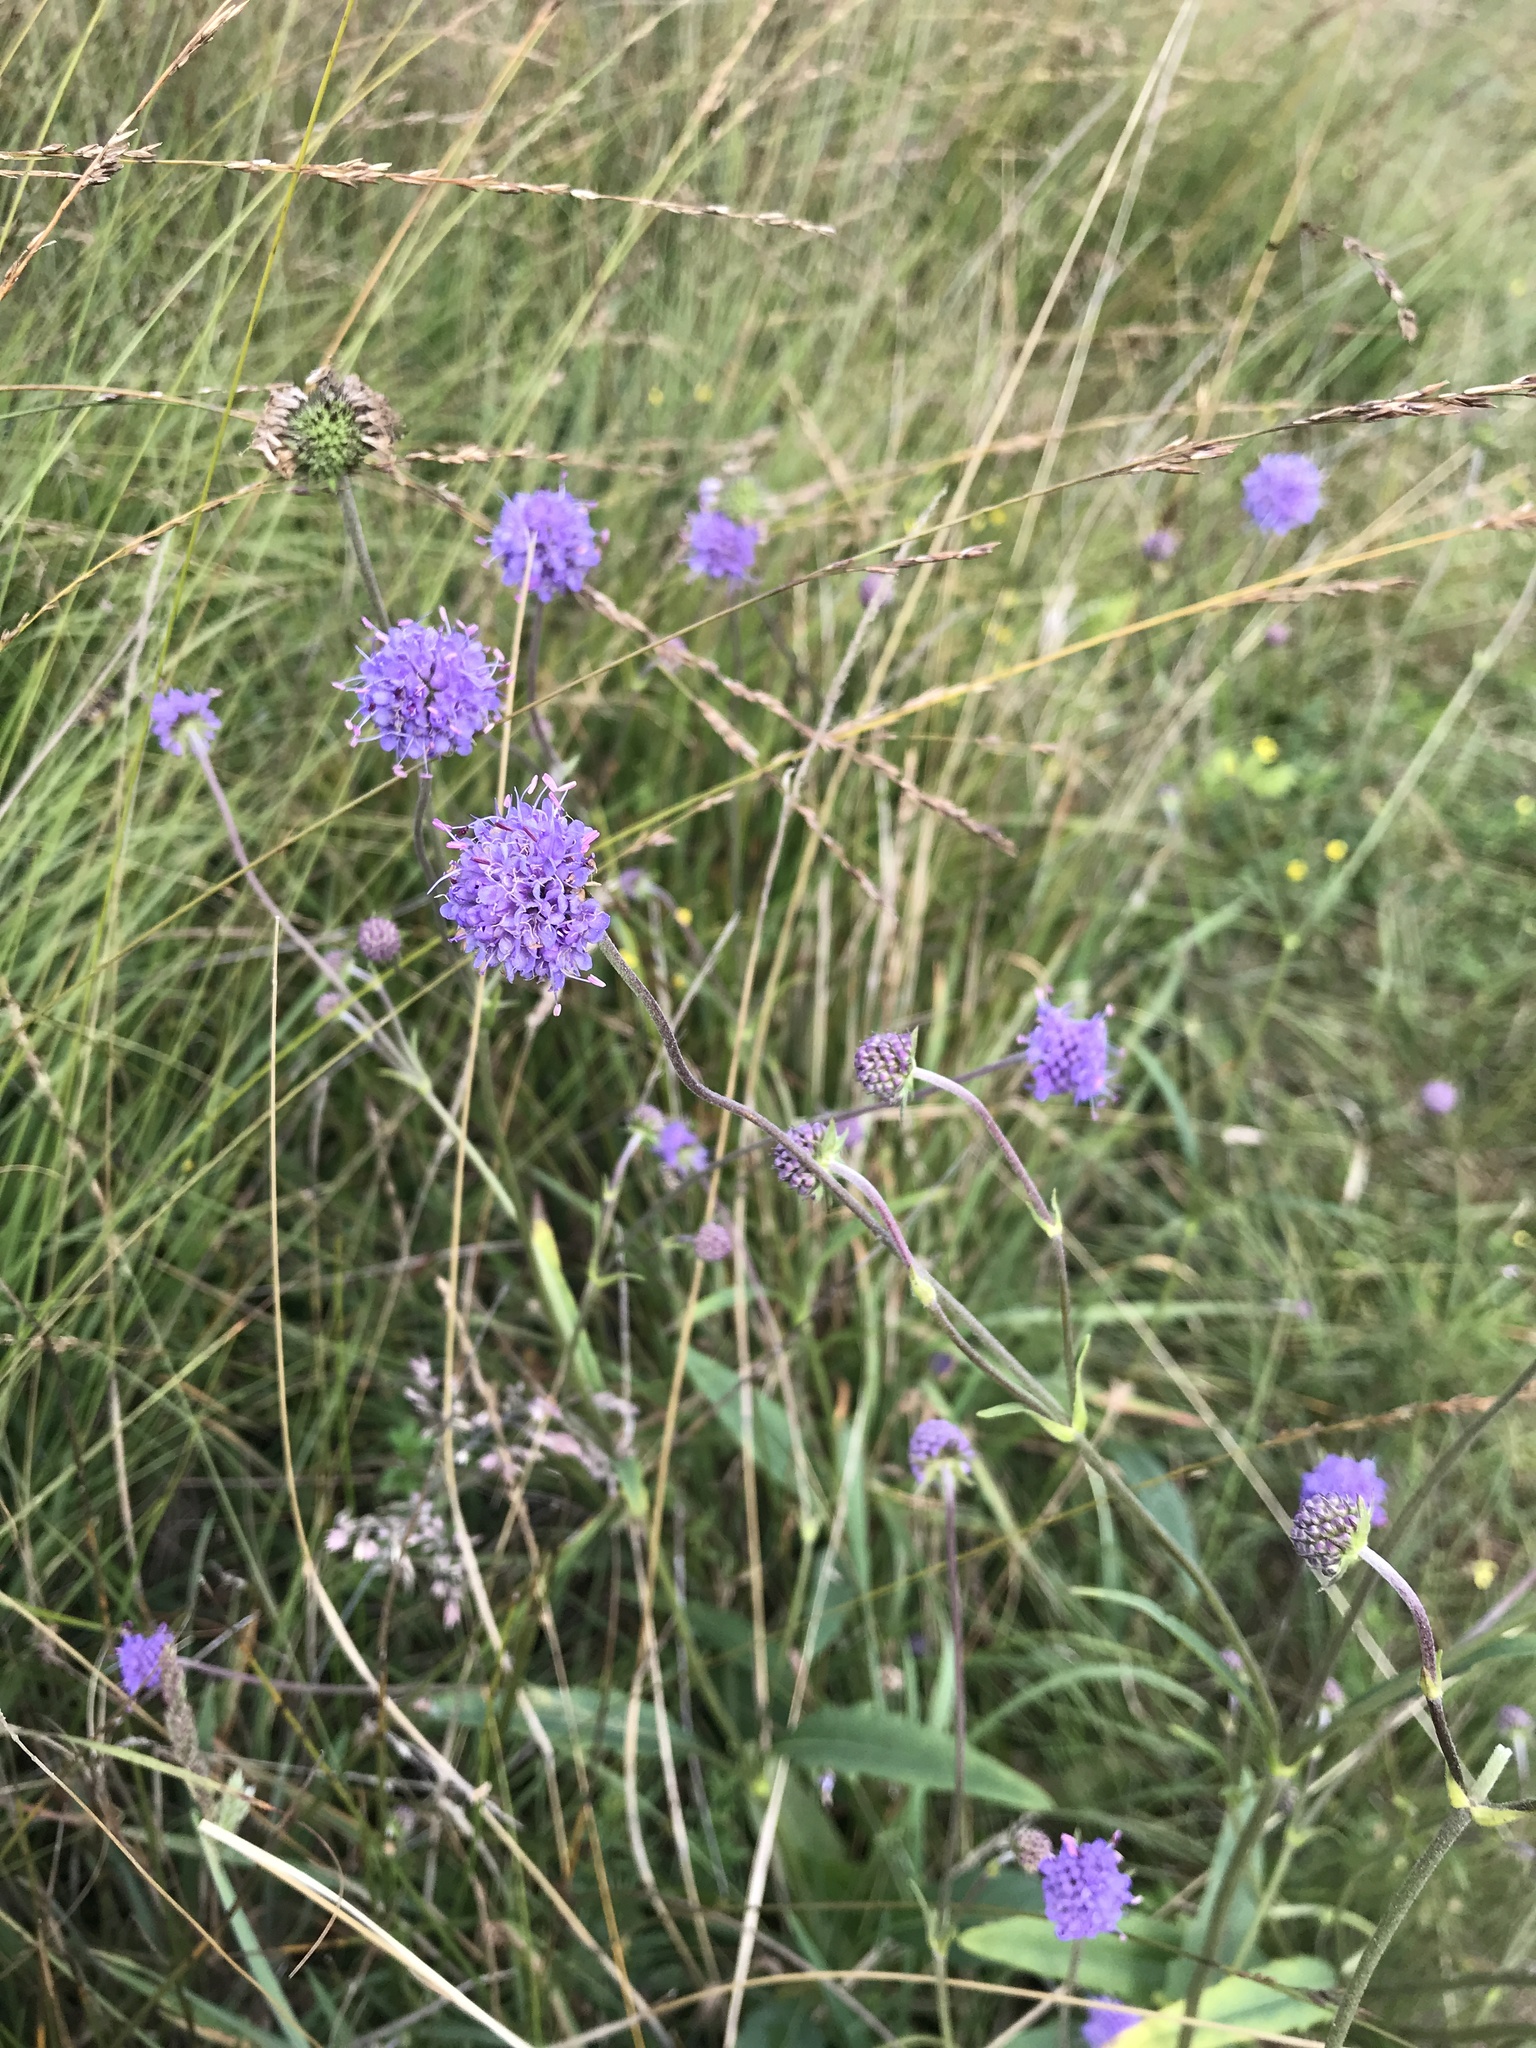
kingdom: Plantae
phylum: Tracheophyta
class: Magnoliopsida
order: Dipsacales
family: Caprifoliaceae
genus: Succisa
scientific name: Succisa pratensis
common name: Devil's-bit
